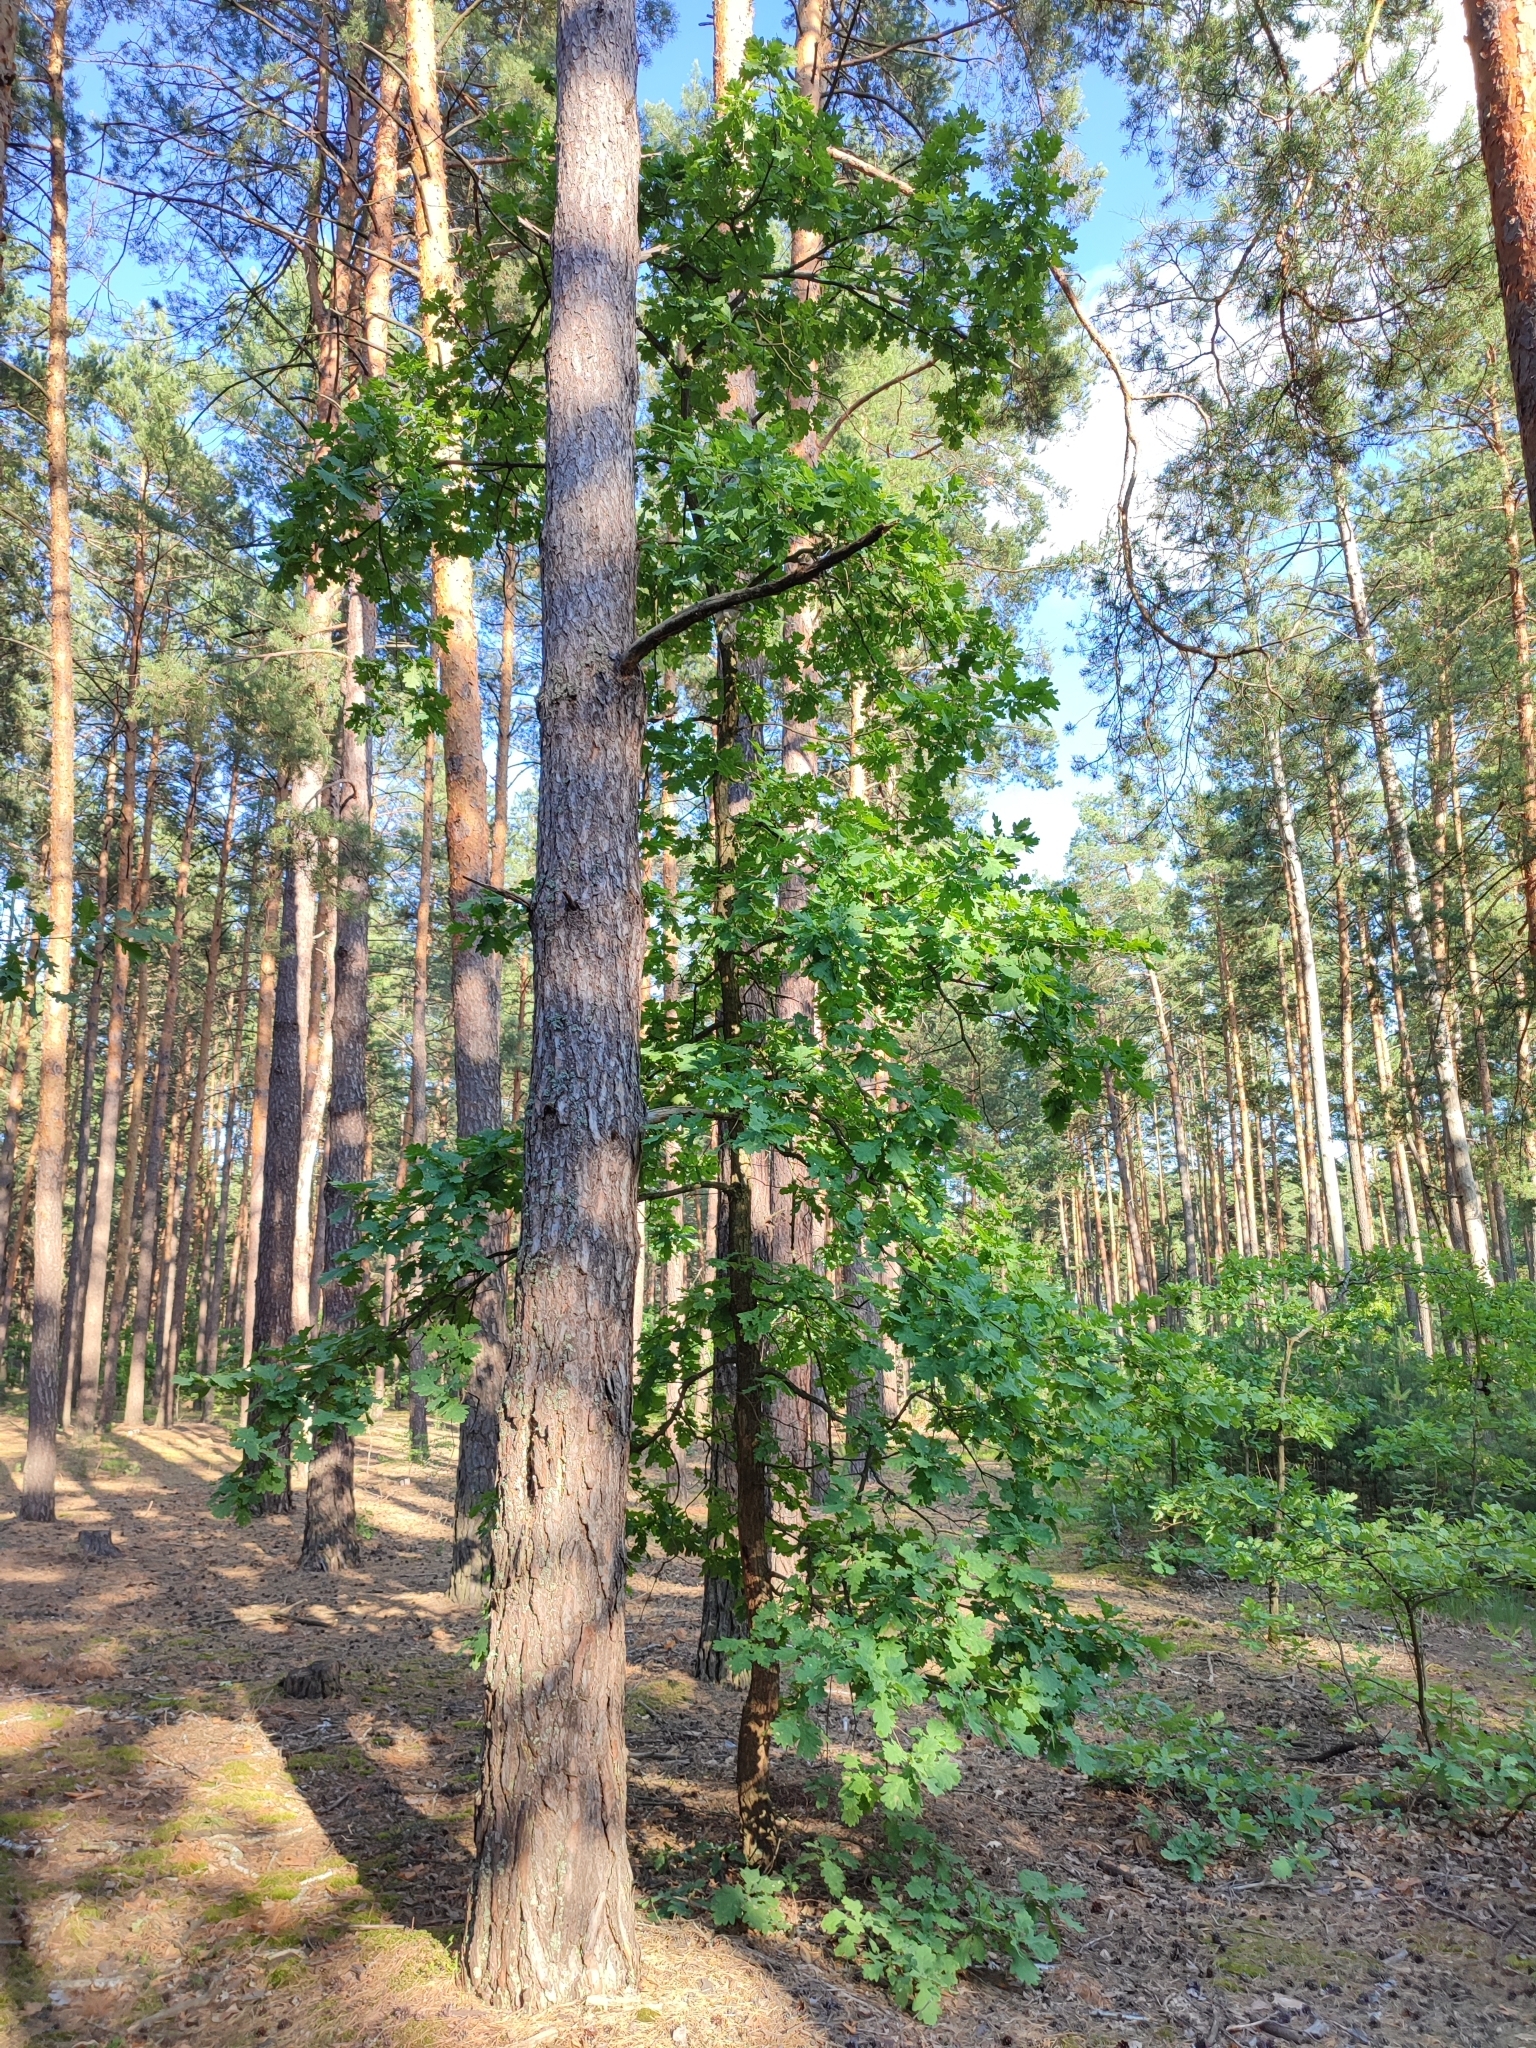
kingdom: Plantae
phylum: Tracheophyta
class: Magnoliopsida
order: Fagales
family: Fagaceae
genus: Quercus
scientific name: Quercus robur
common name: Pedunculate oak
